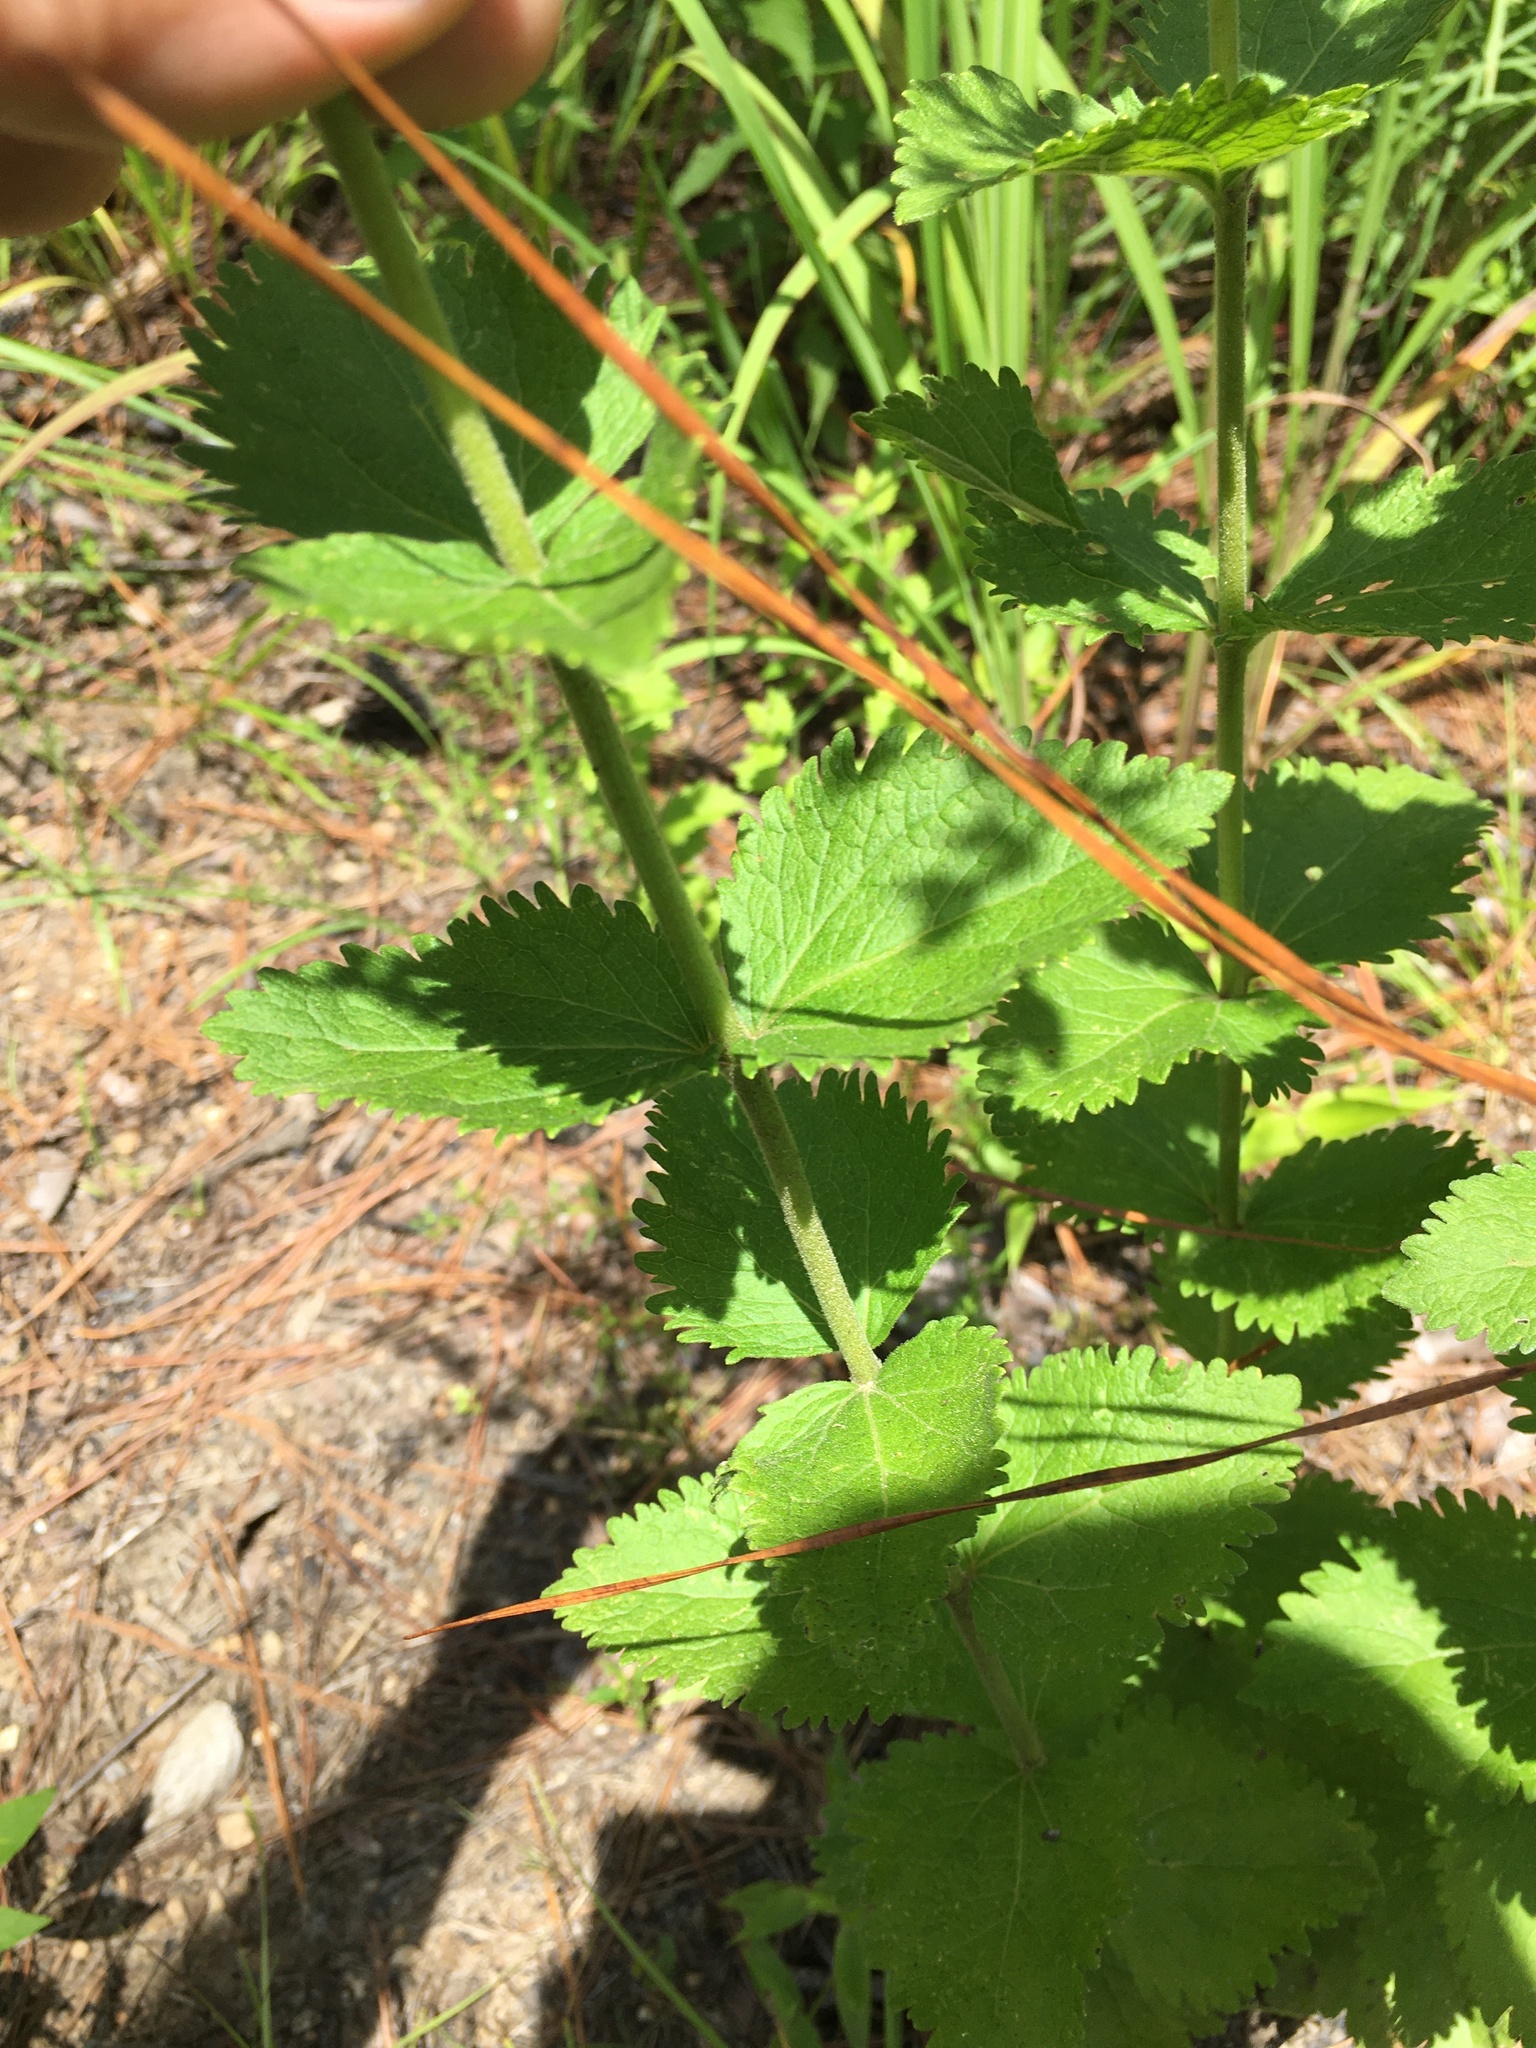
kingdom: Plantae
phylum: Tracheophyta
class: Magnoliopsida
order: Asterales
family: Asteraceae
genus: Eupatorium
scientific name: Eupatorium rotundifolium
